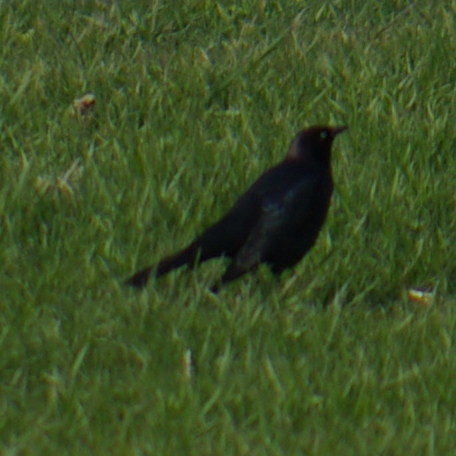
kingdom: Animalia
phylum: Chordata
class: Aves
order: Passeriformes
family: Icteridae
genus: Euphagus
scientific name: Euphagus cyanocephalus
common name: Brewer's blackbird
